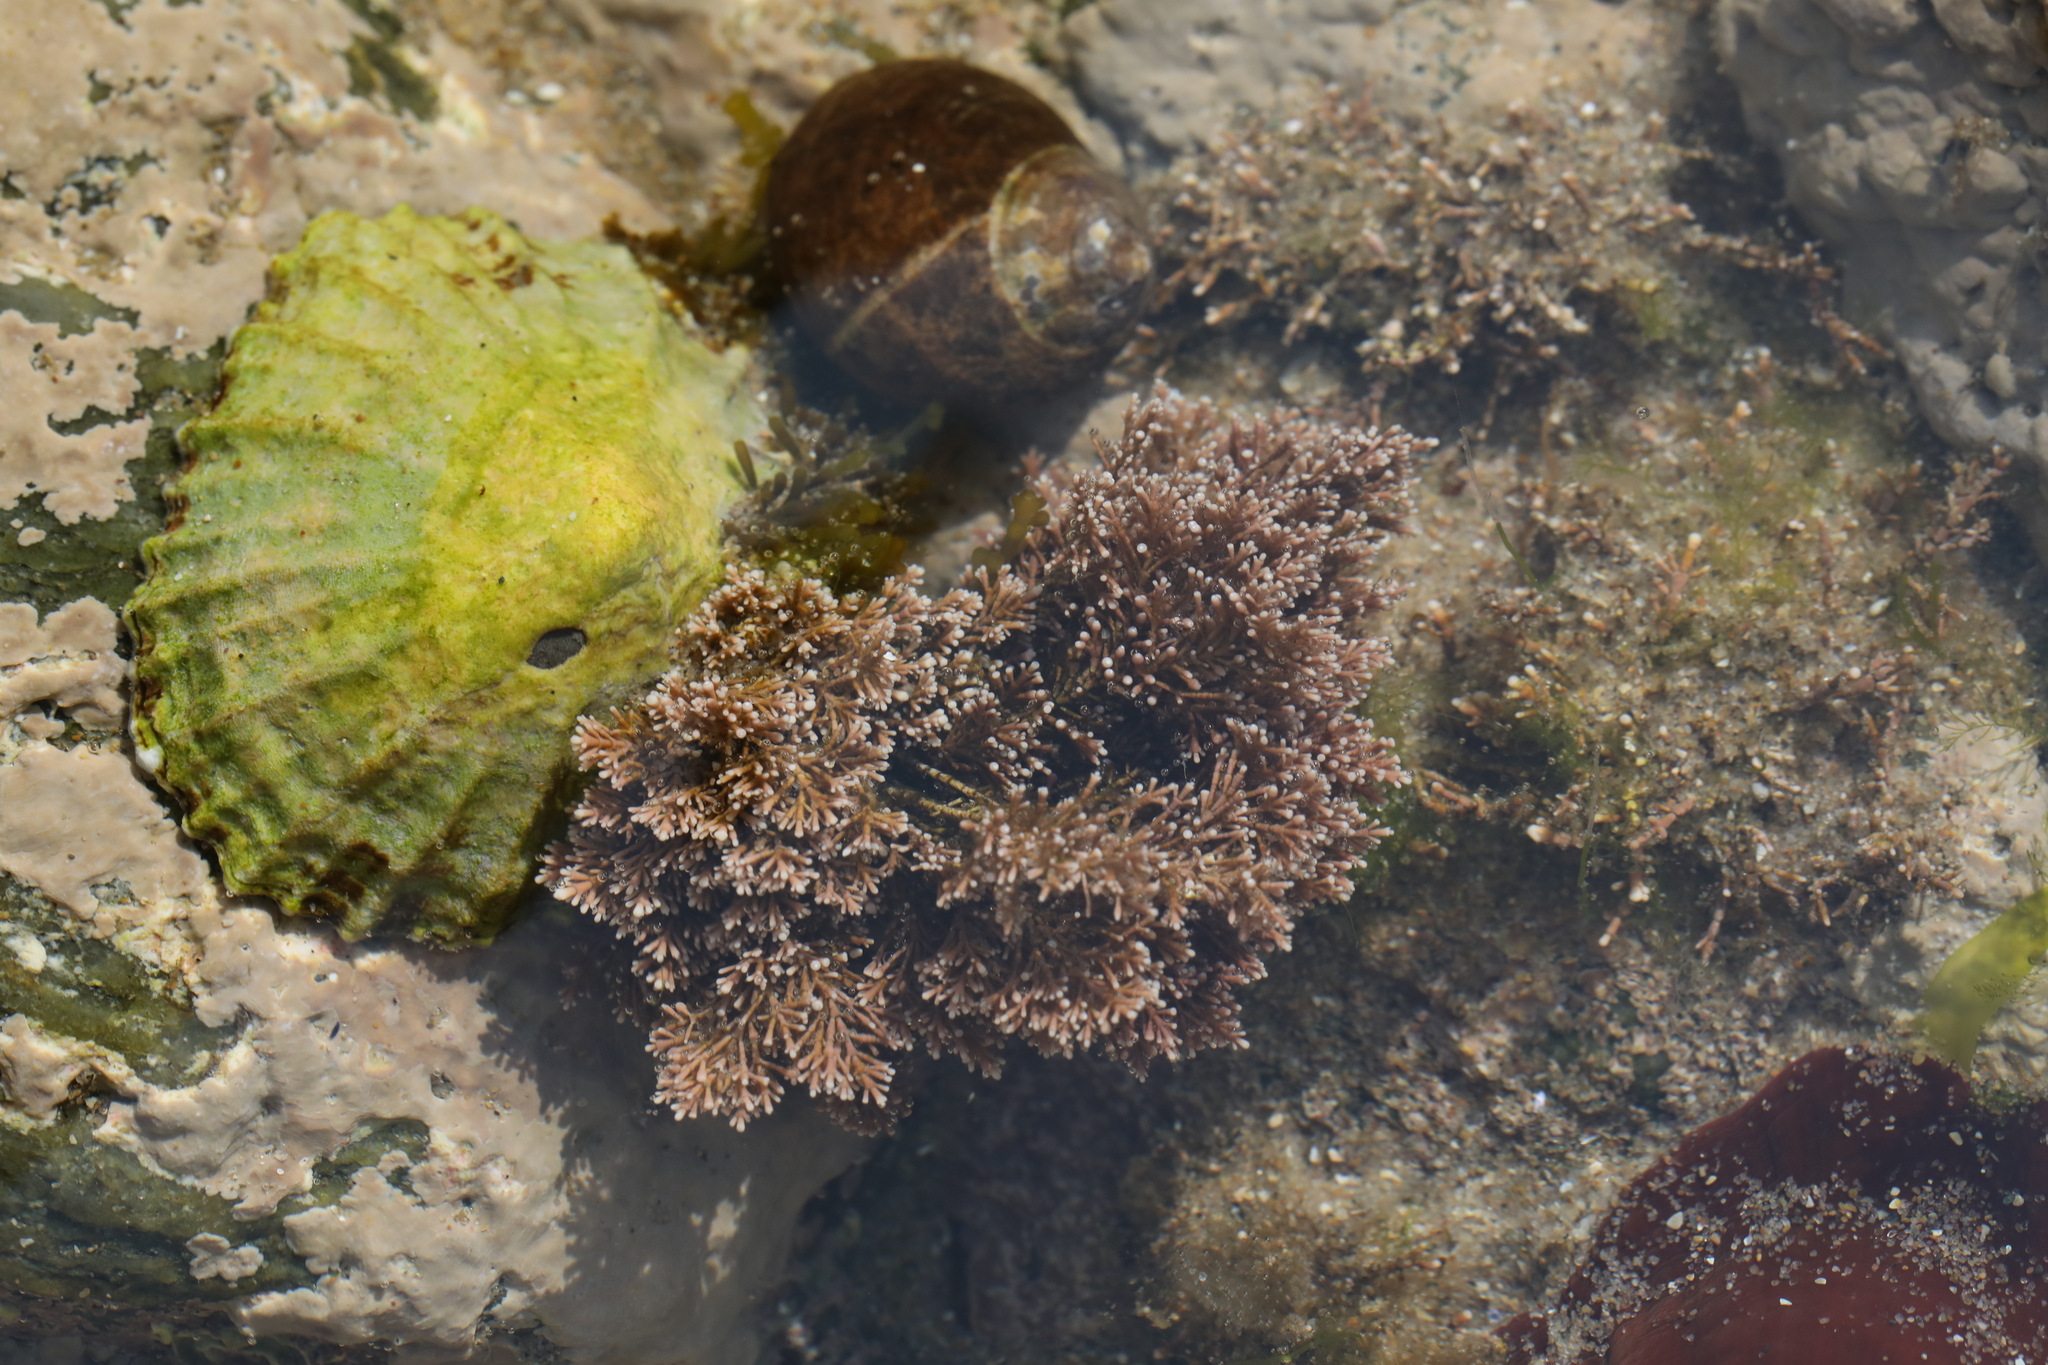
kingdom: Plantae
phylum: Rhodophyta
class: Florideophyceae
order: Corallinales
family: Corallinaceae
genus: Corallina
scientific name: Corallina officinalis
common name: Coral weed
